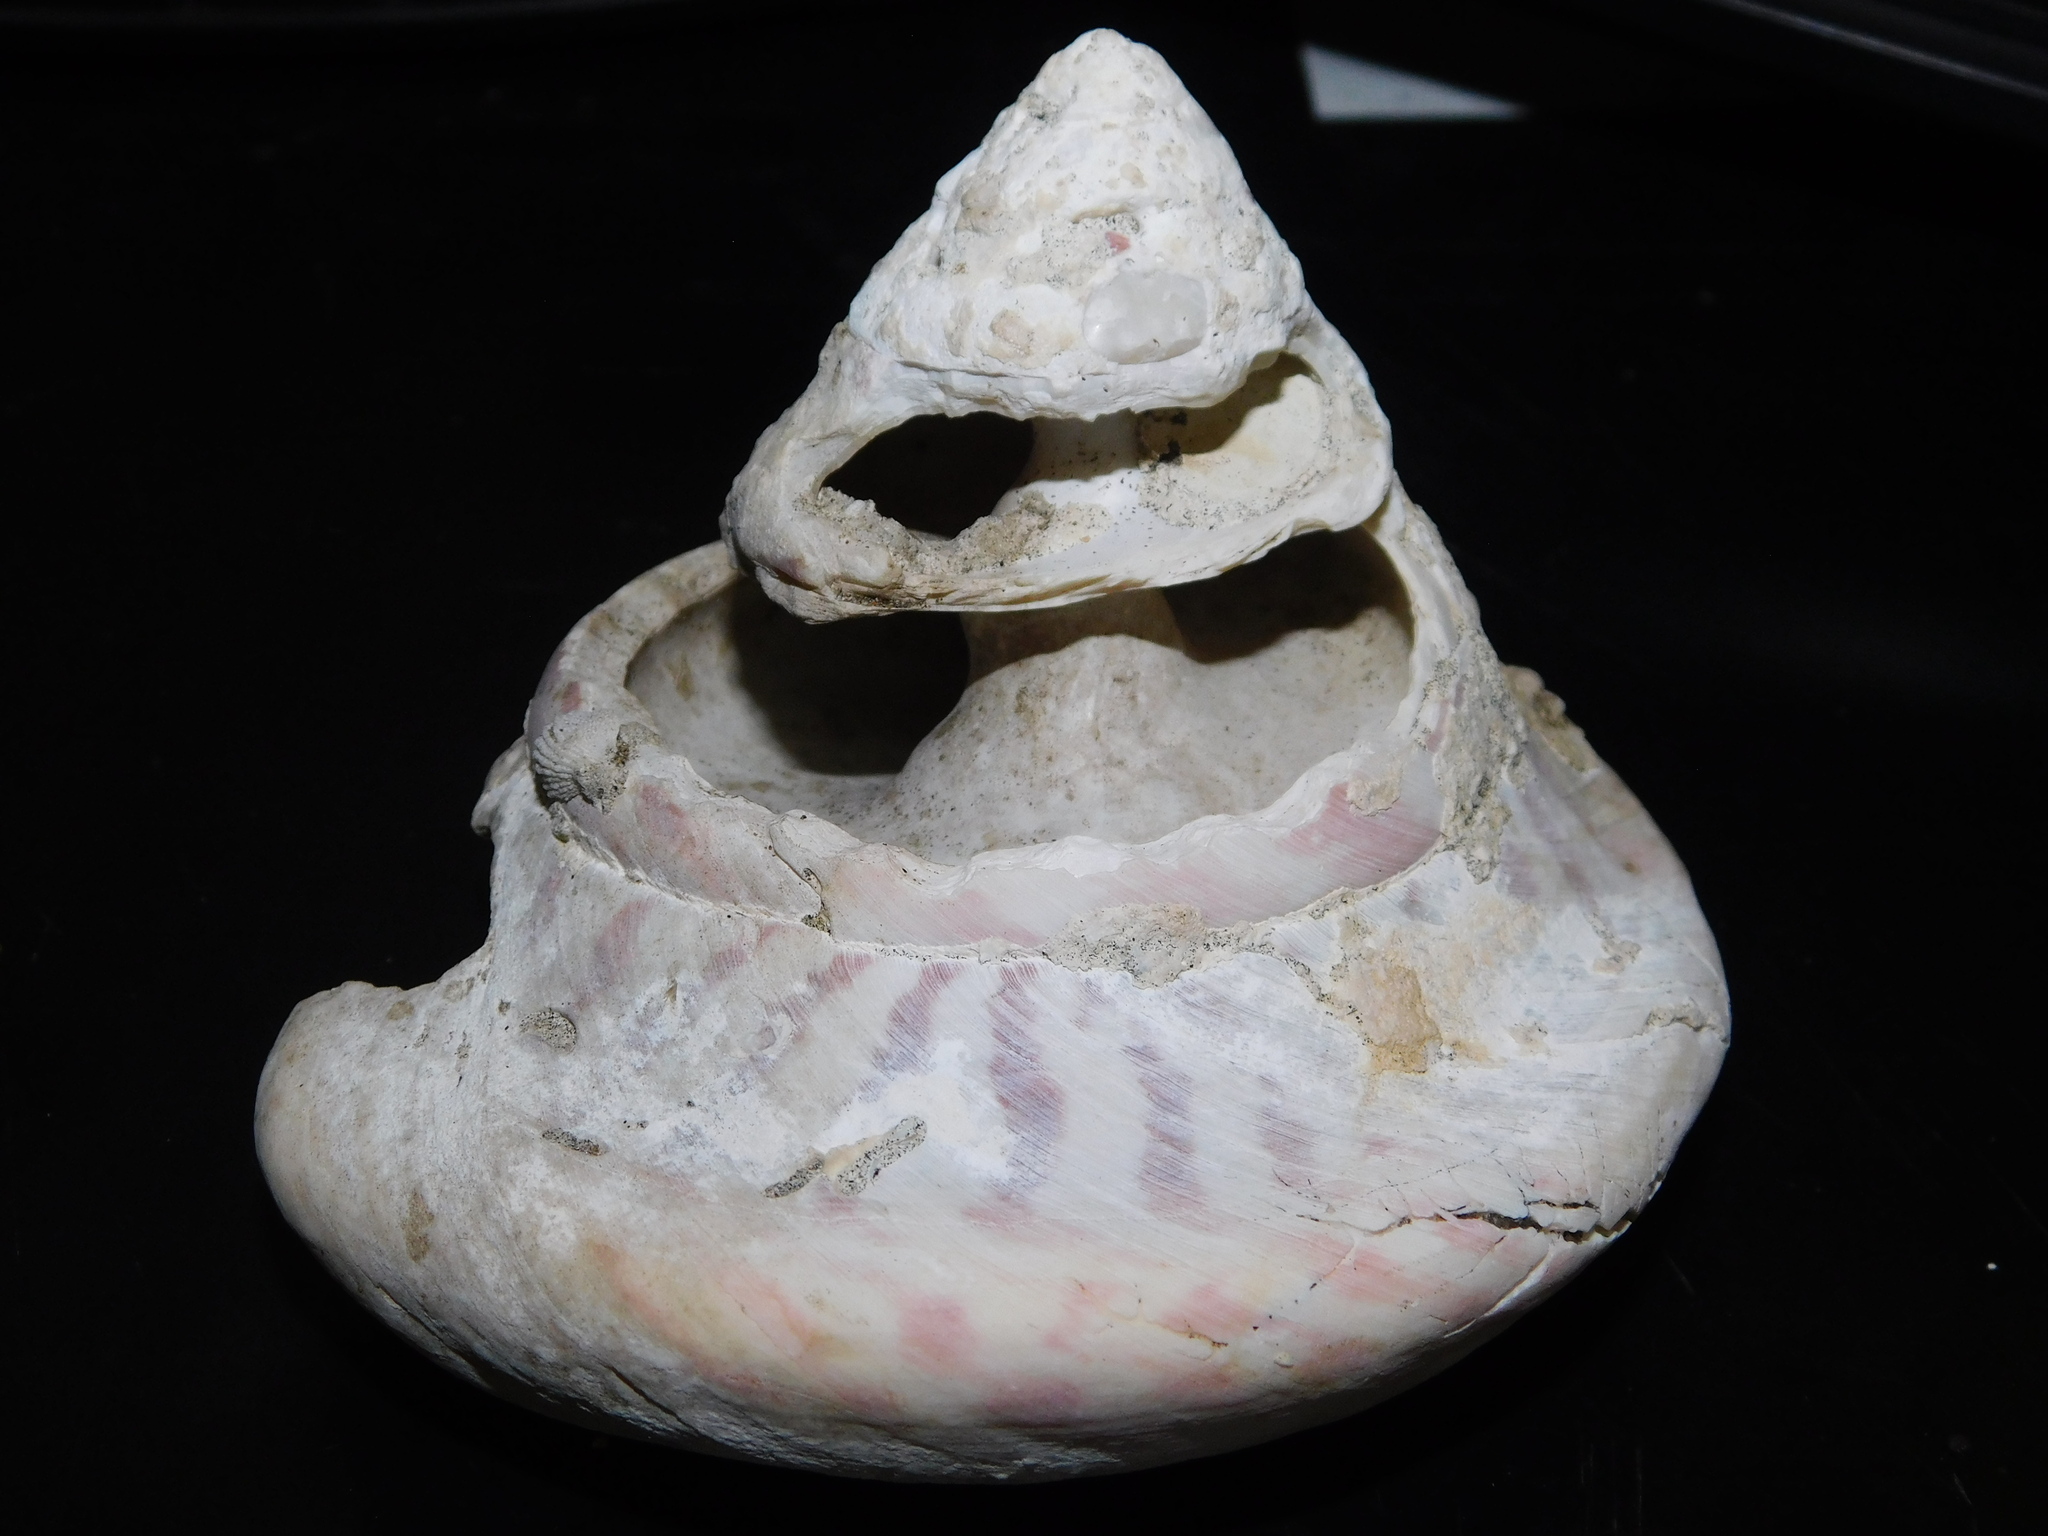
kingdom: Animalia
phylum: Mollusca
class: Gastropoda
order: Trochida
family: Tegulidae
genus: Rochia
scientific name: Rochia nilotica
